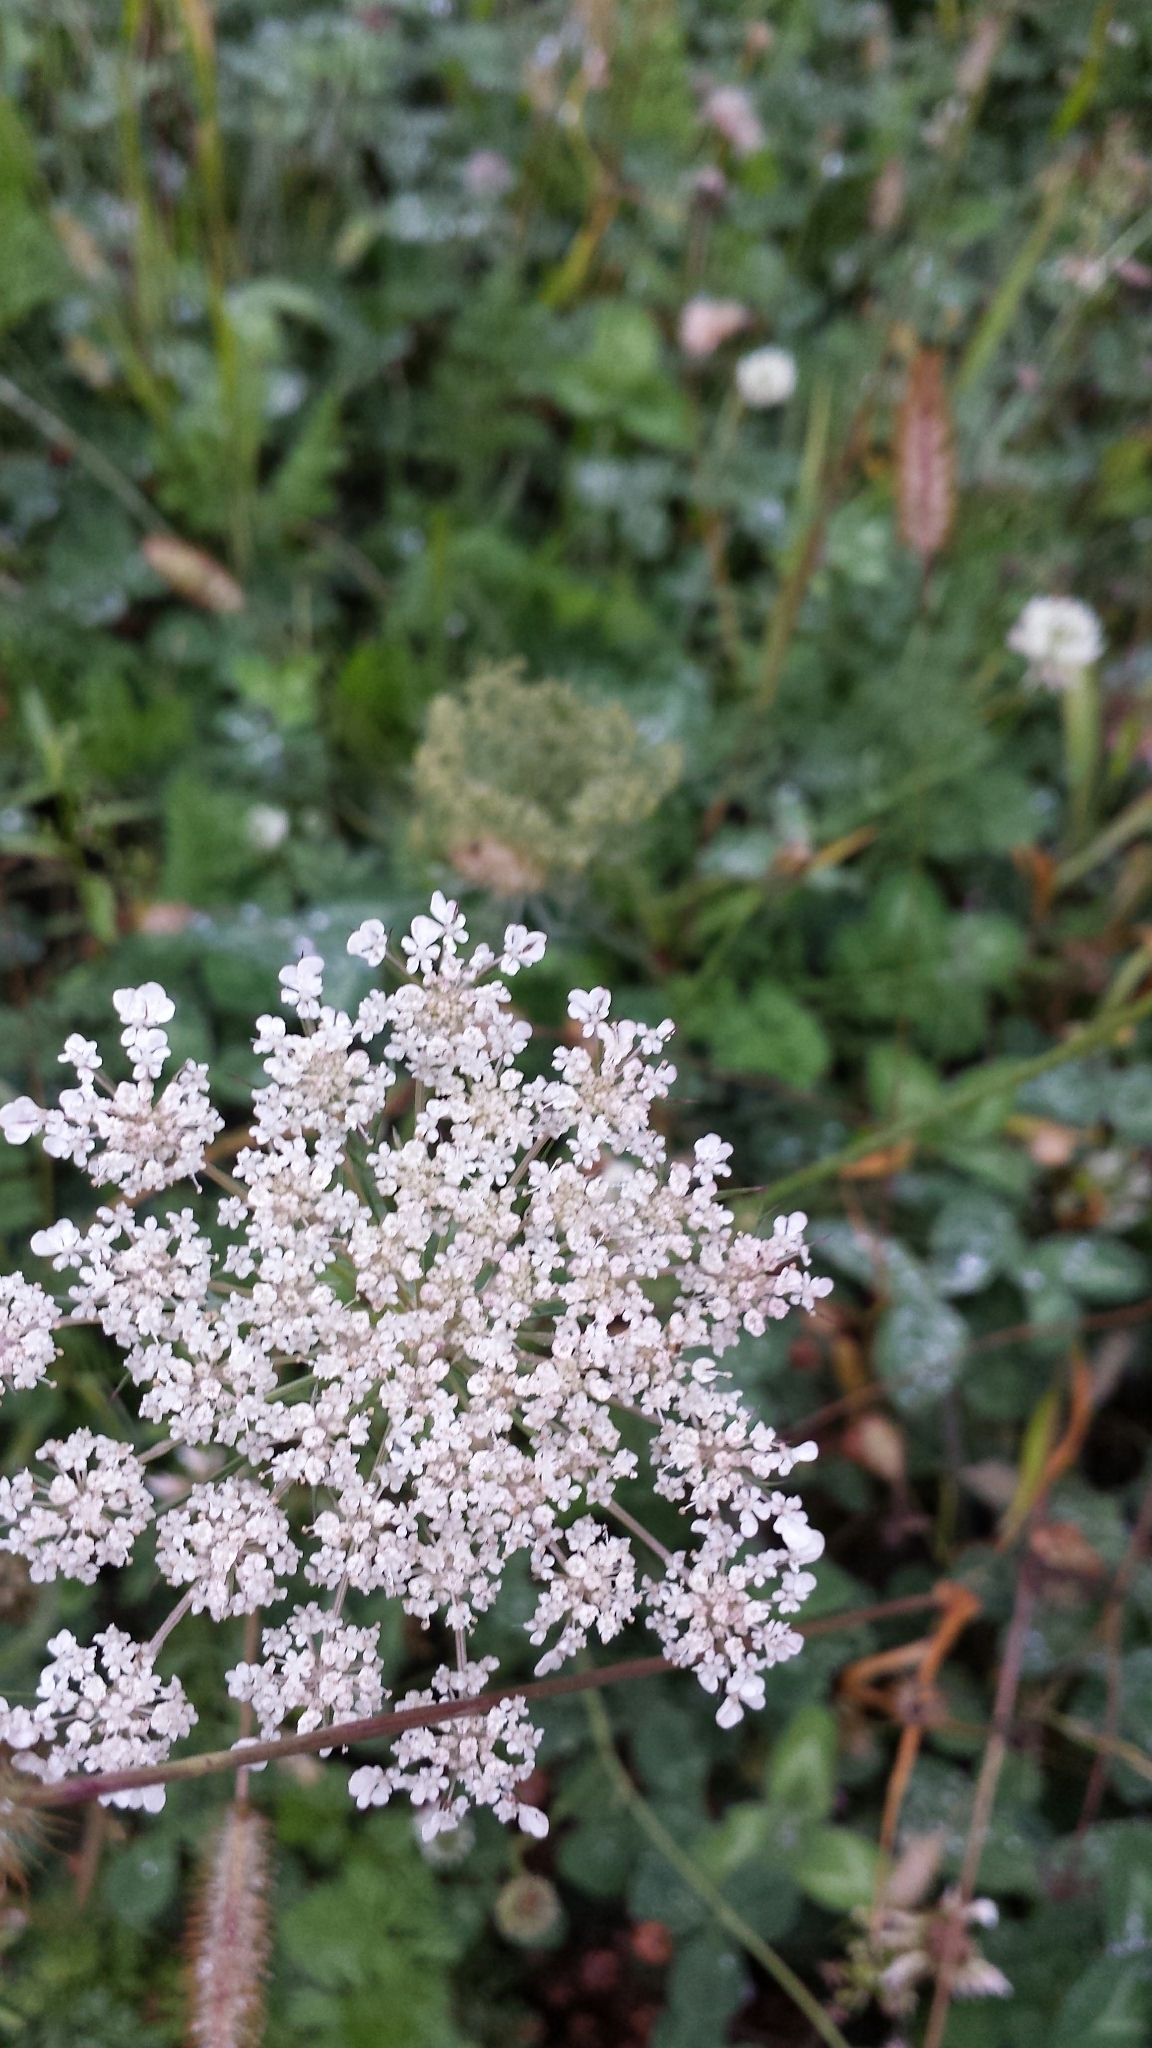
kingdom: Plantae
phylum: Tracheophyta
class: Magnoliopsida
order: Apiales
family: Apiaceae
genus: Daucus
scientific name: Daucus carota
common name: Wild carrot
